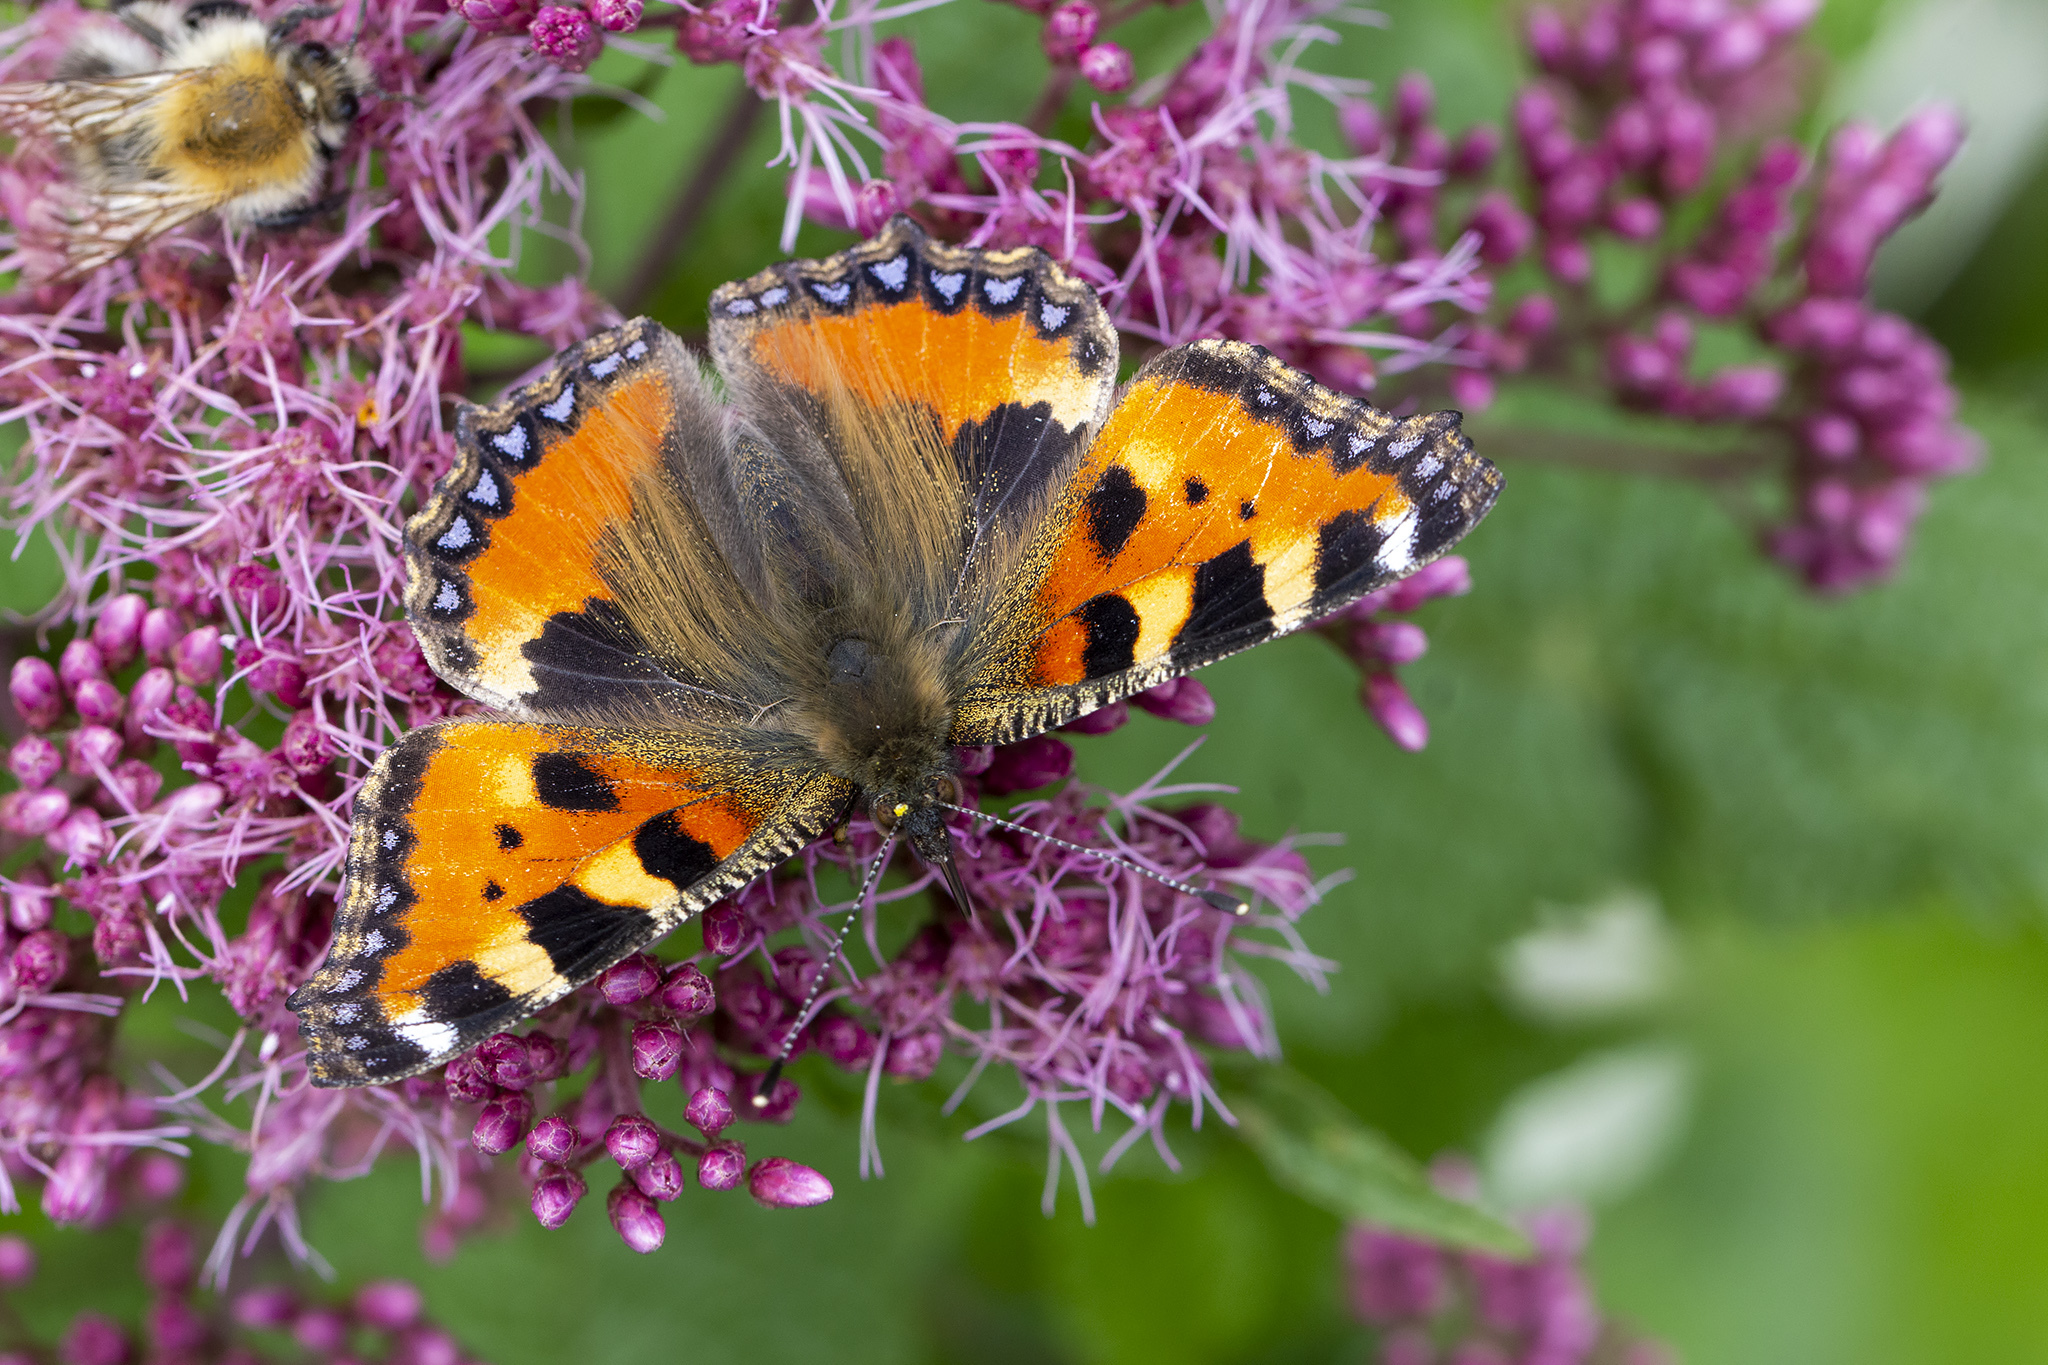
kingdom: Animalia
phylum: Arthropoda
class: Insecta
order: Lepidoptera
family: Nymphalidae
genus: Aglais
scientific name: Aglais urticae
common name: Small tortoiseshell
